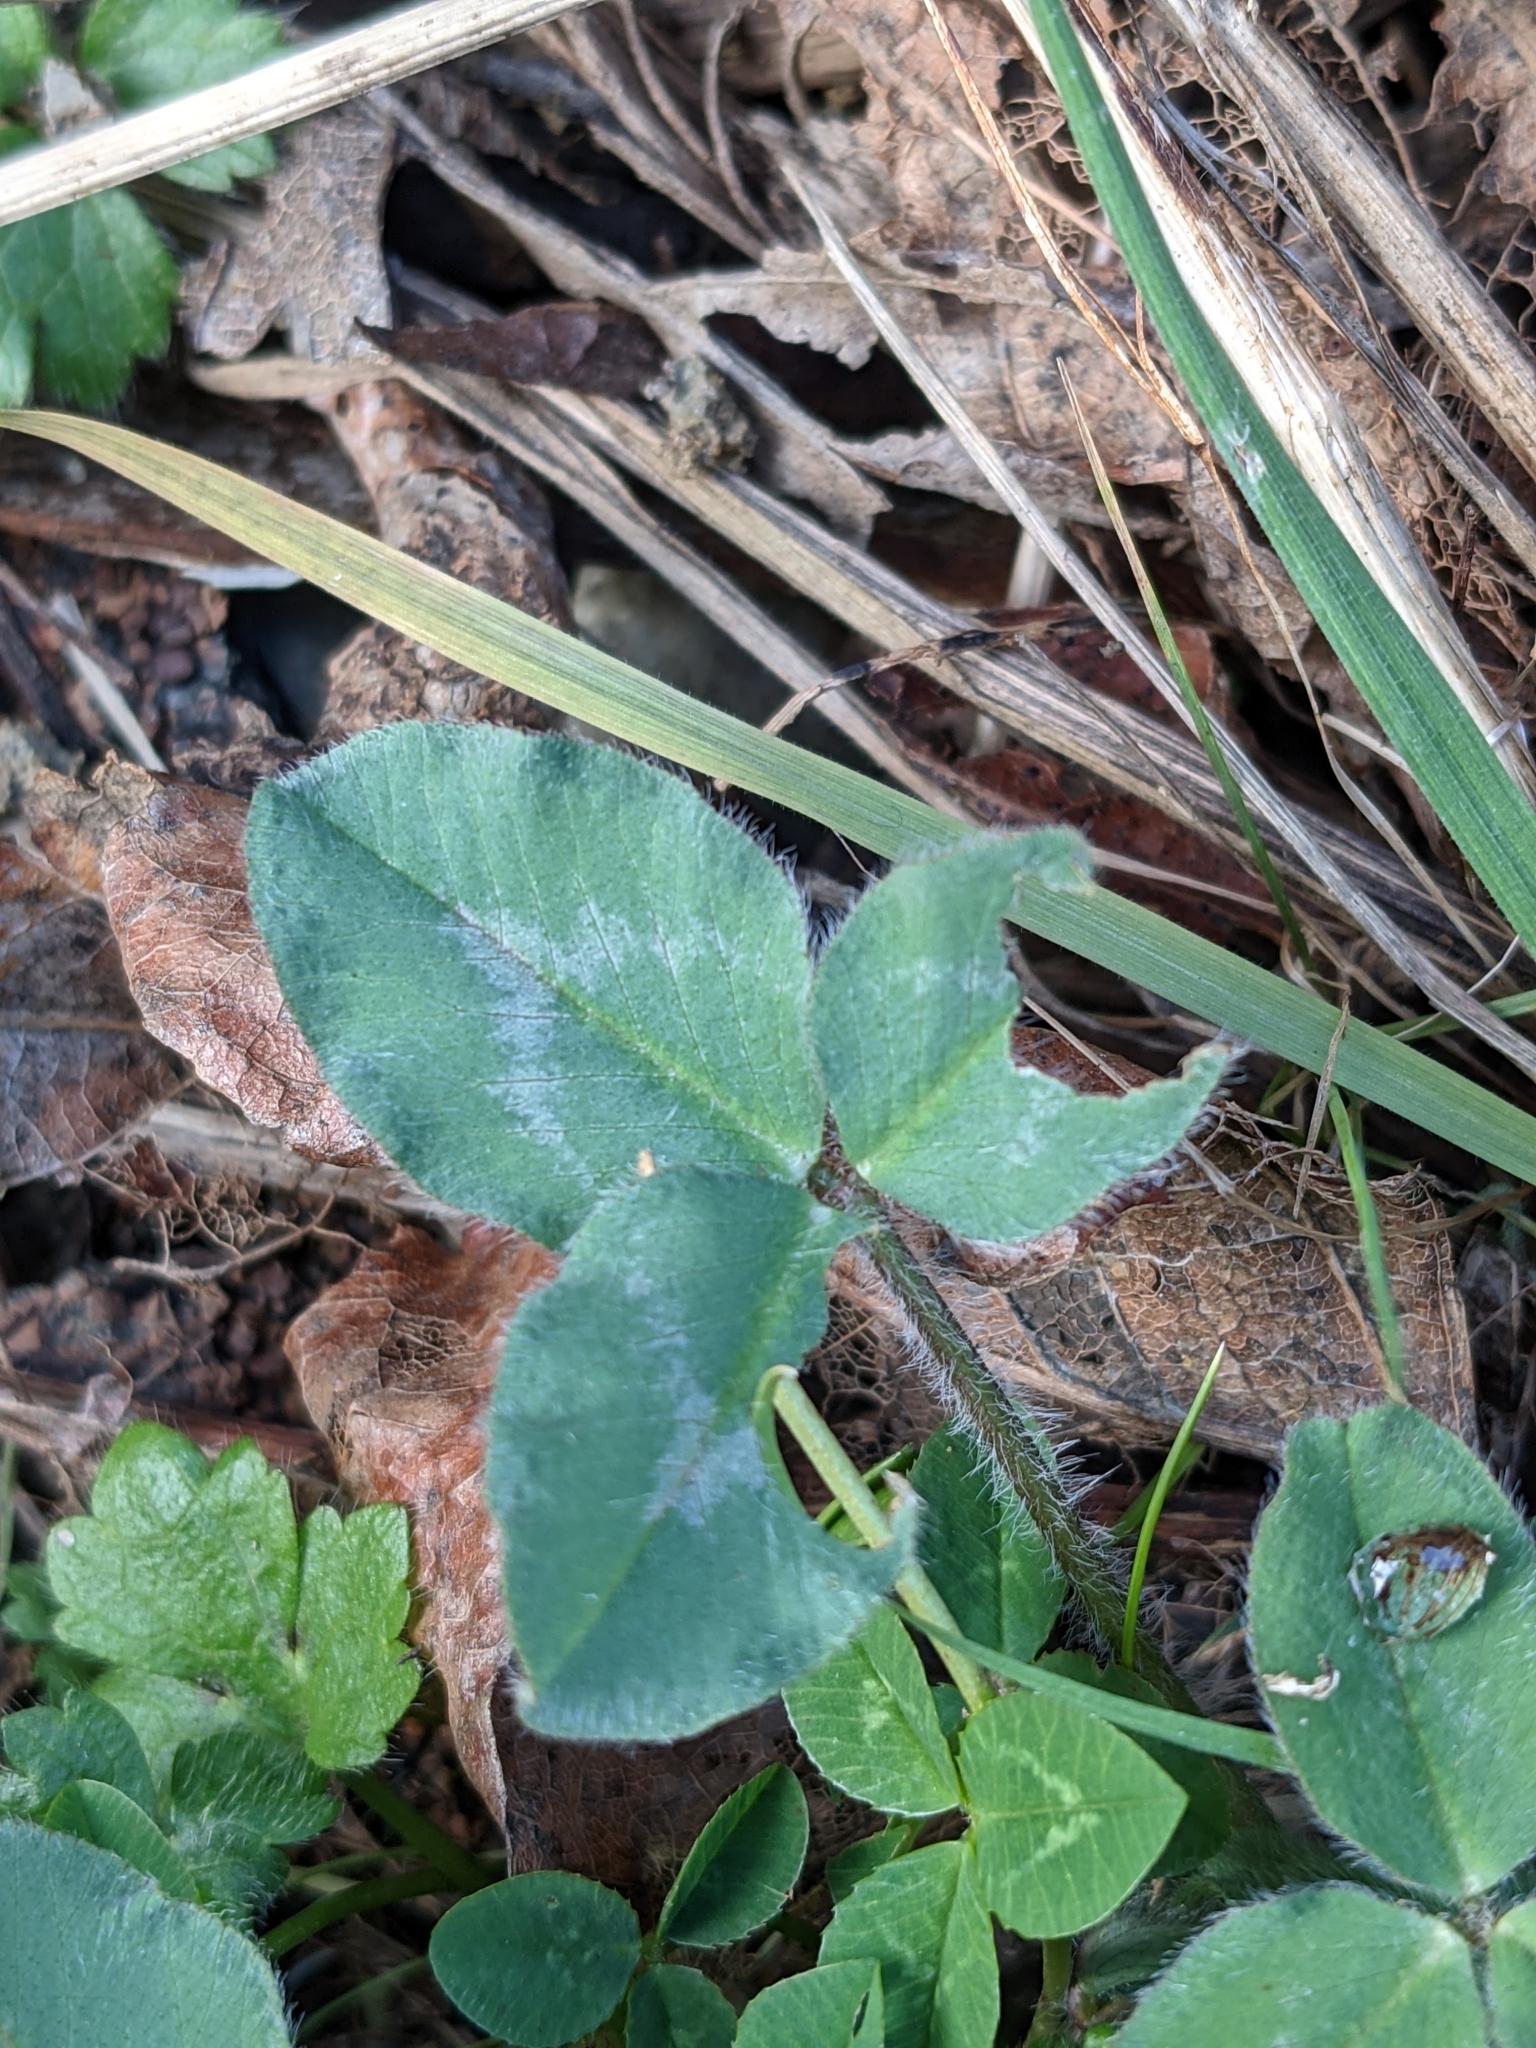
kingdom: Plantae
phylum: Tracheophyta
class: Magnoliopsida
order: Fabales
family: Fabaceae
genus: Trifolium
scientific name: Trifolium pratense
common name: Red clover
